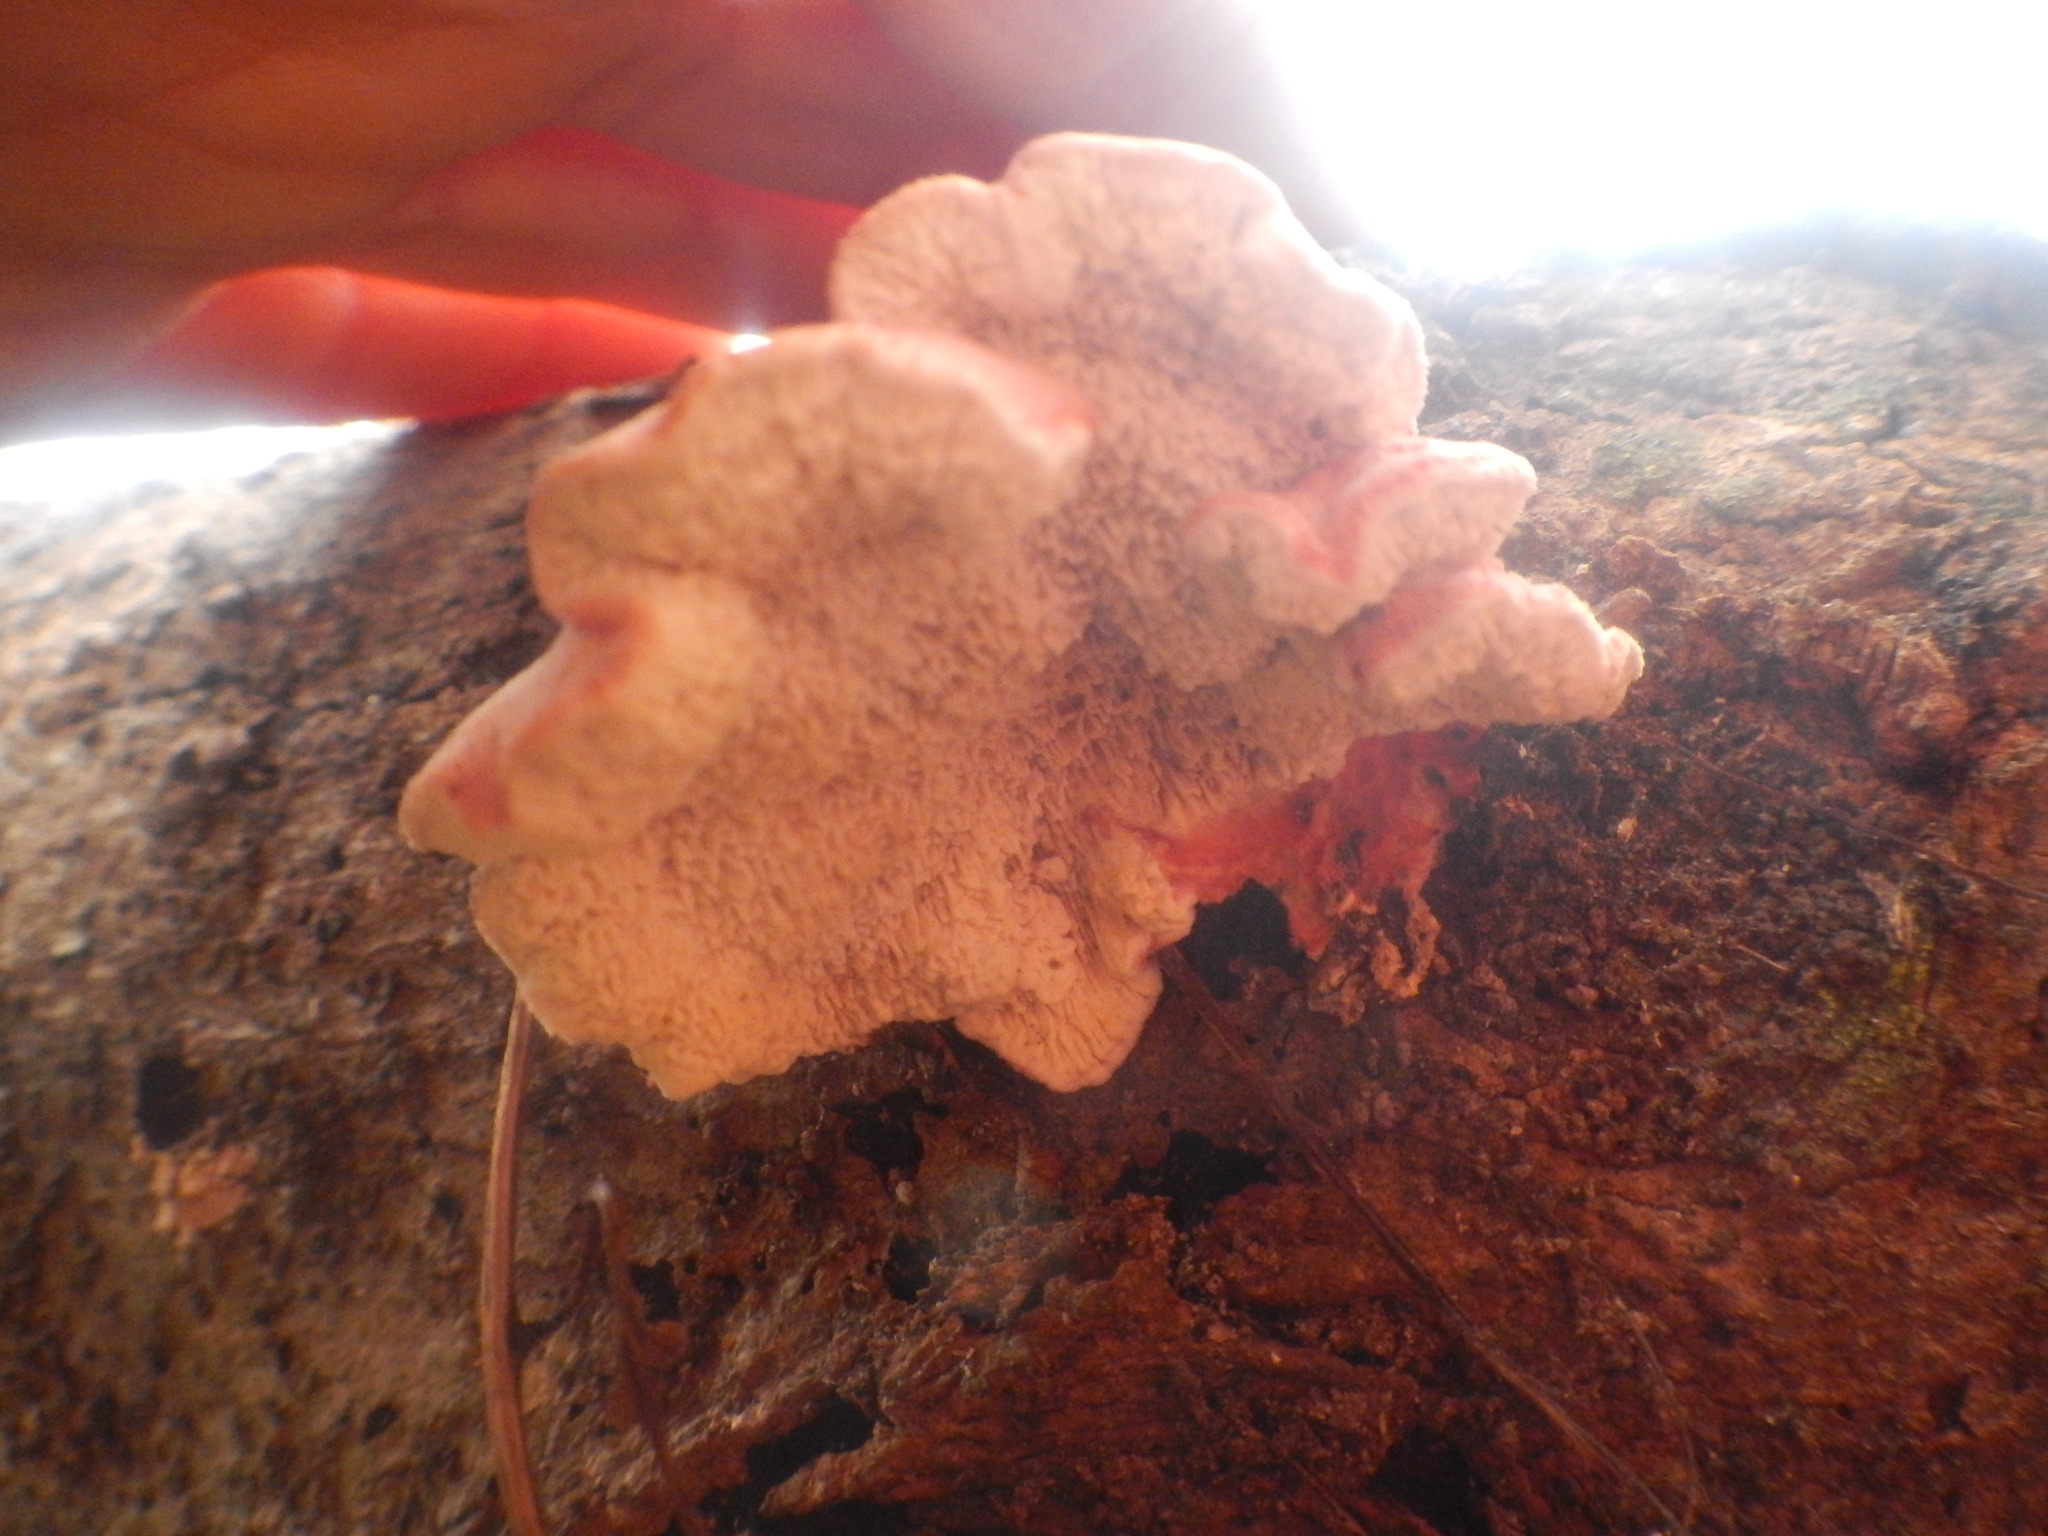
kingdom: Fungi
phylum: Basidiomycota
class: Agaricomycetes
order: Polyporales
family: Irpicaceae
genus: Byssomerulius
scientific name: Byssomerulius incarnatus
